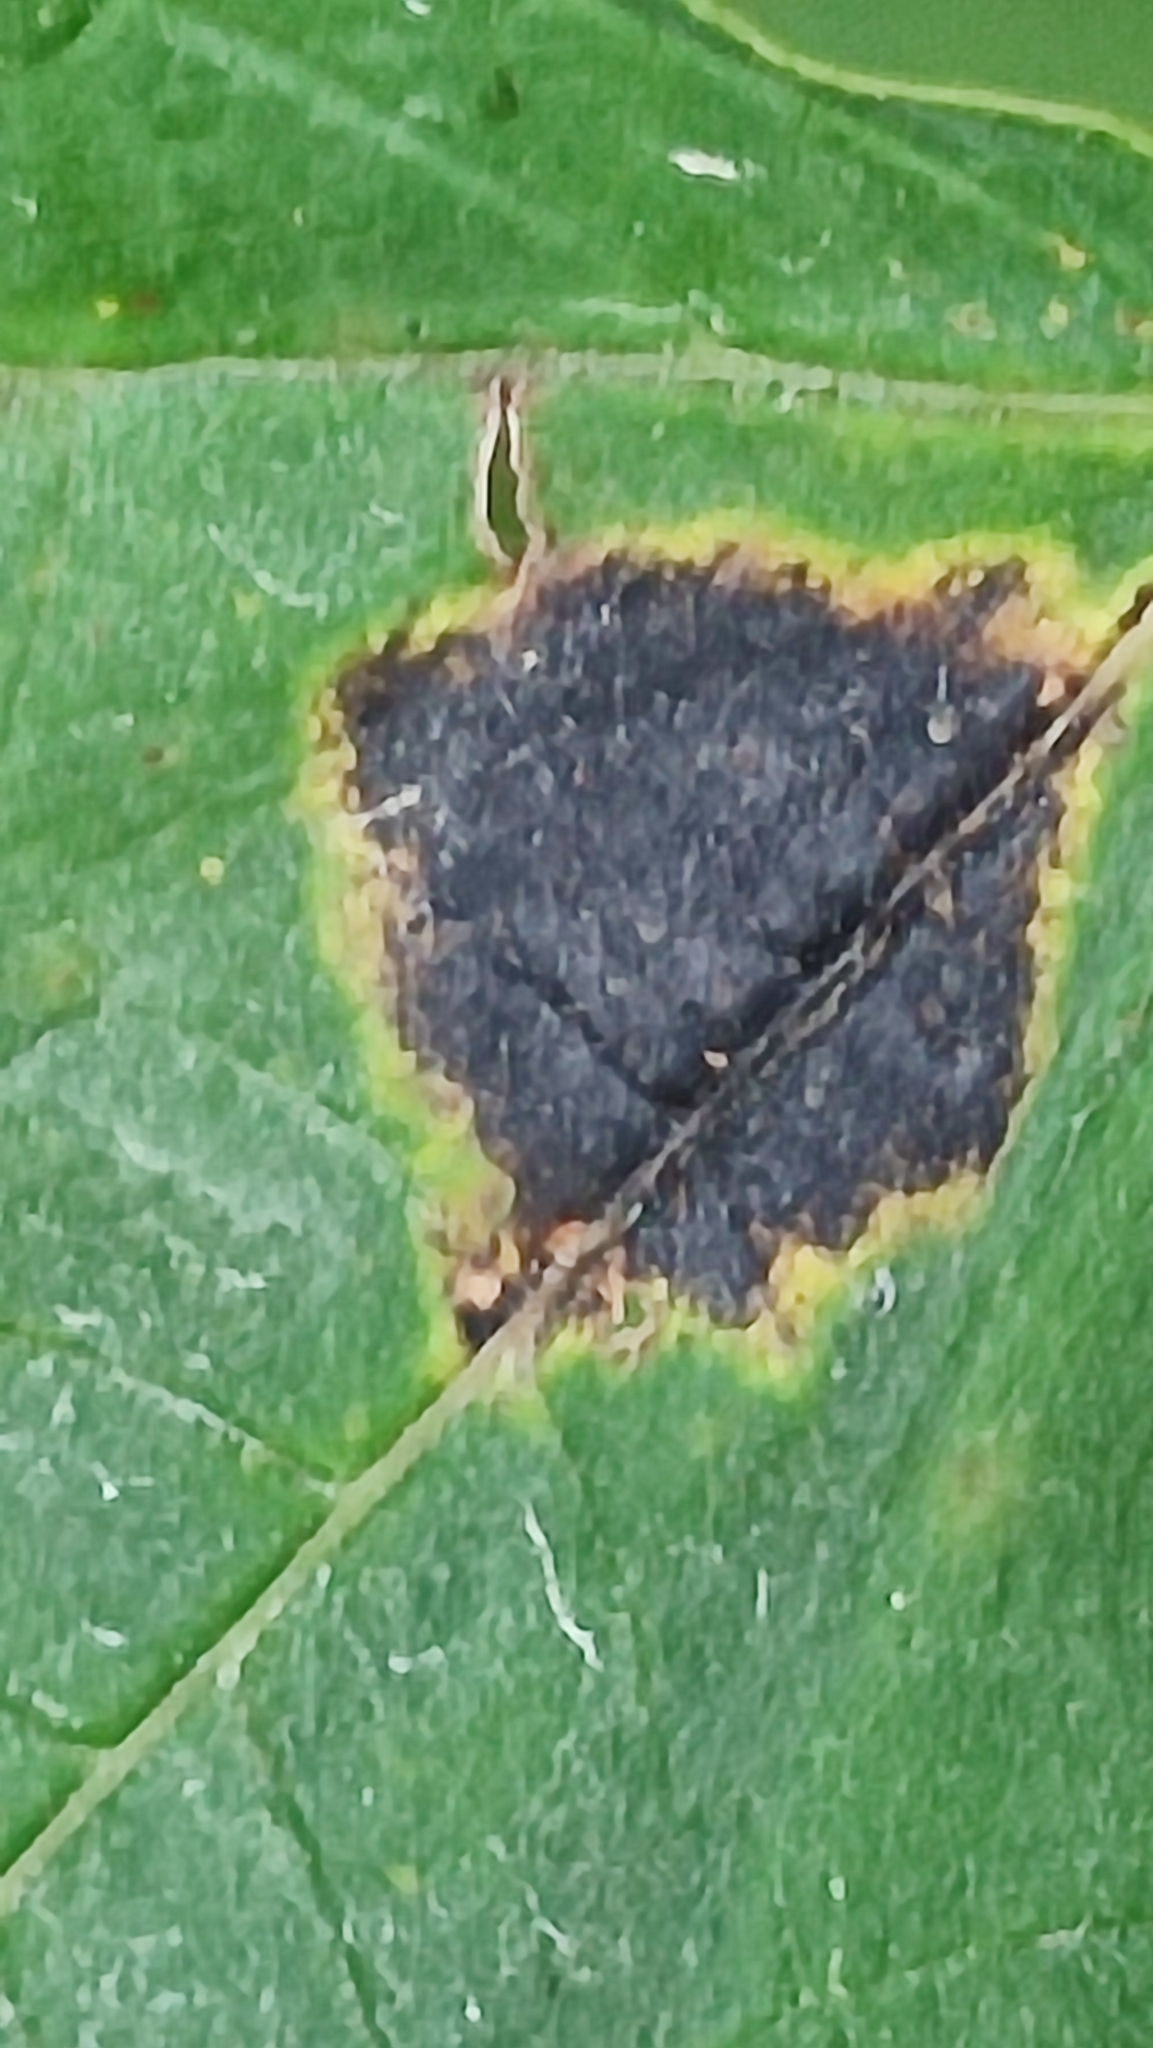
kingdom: Fungi
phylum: Ascomycota
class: Leotiomycetes
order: Rhytismatales
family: Rhytismataceae
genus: Rhytisma
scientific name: Rhytisma acerinum
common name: European tar spot
